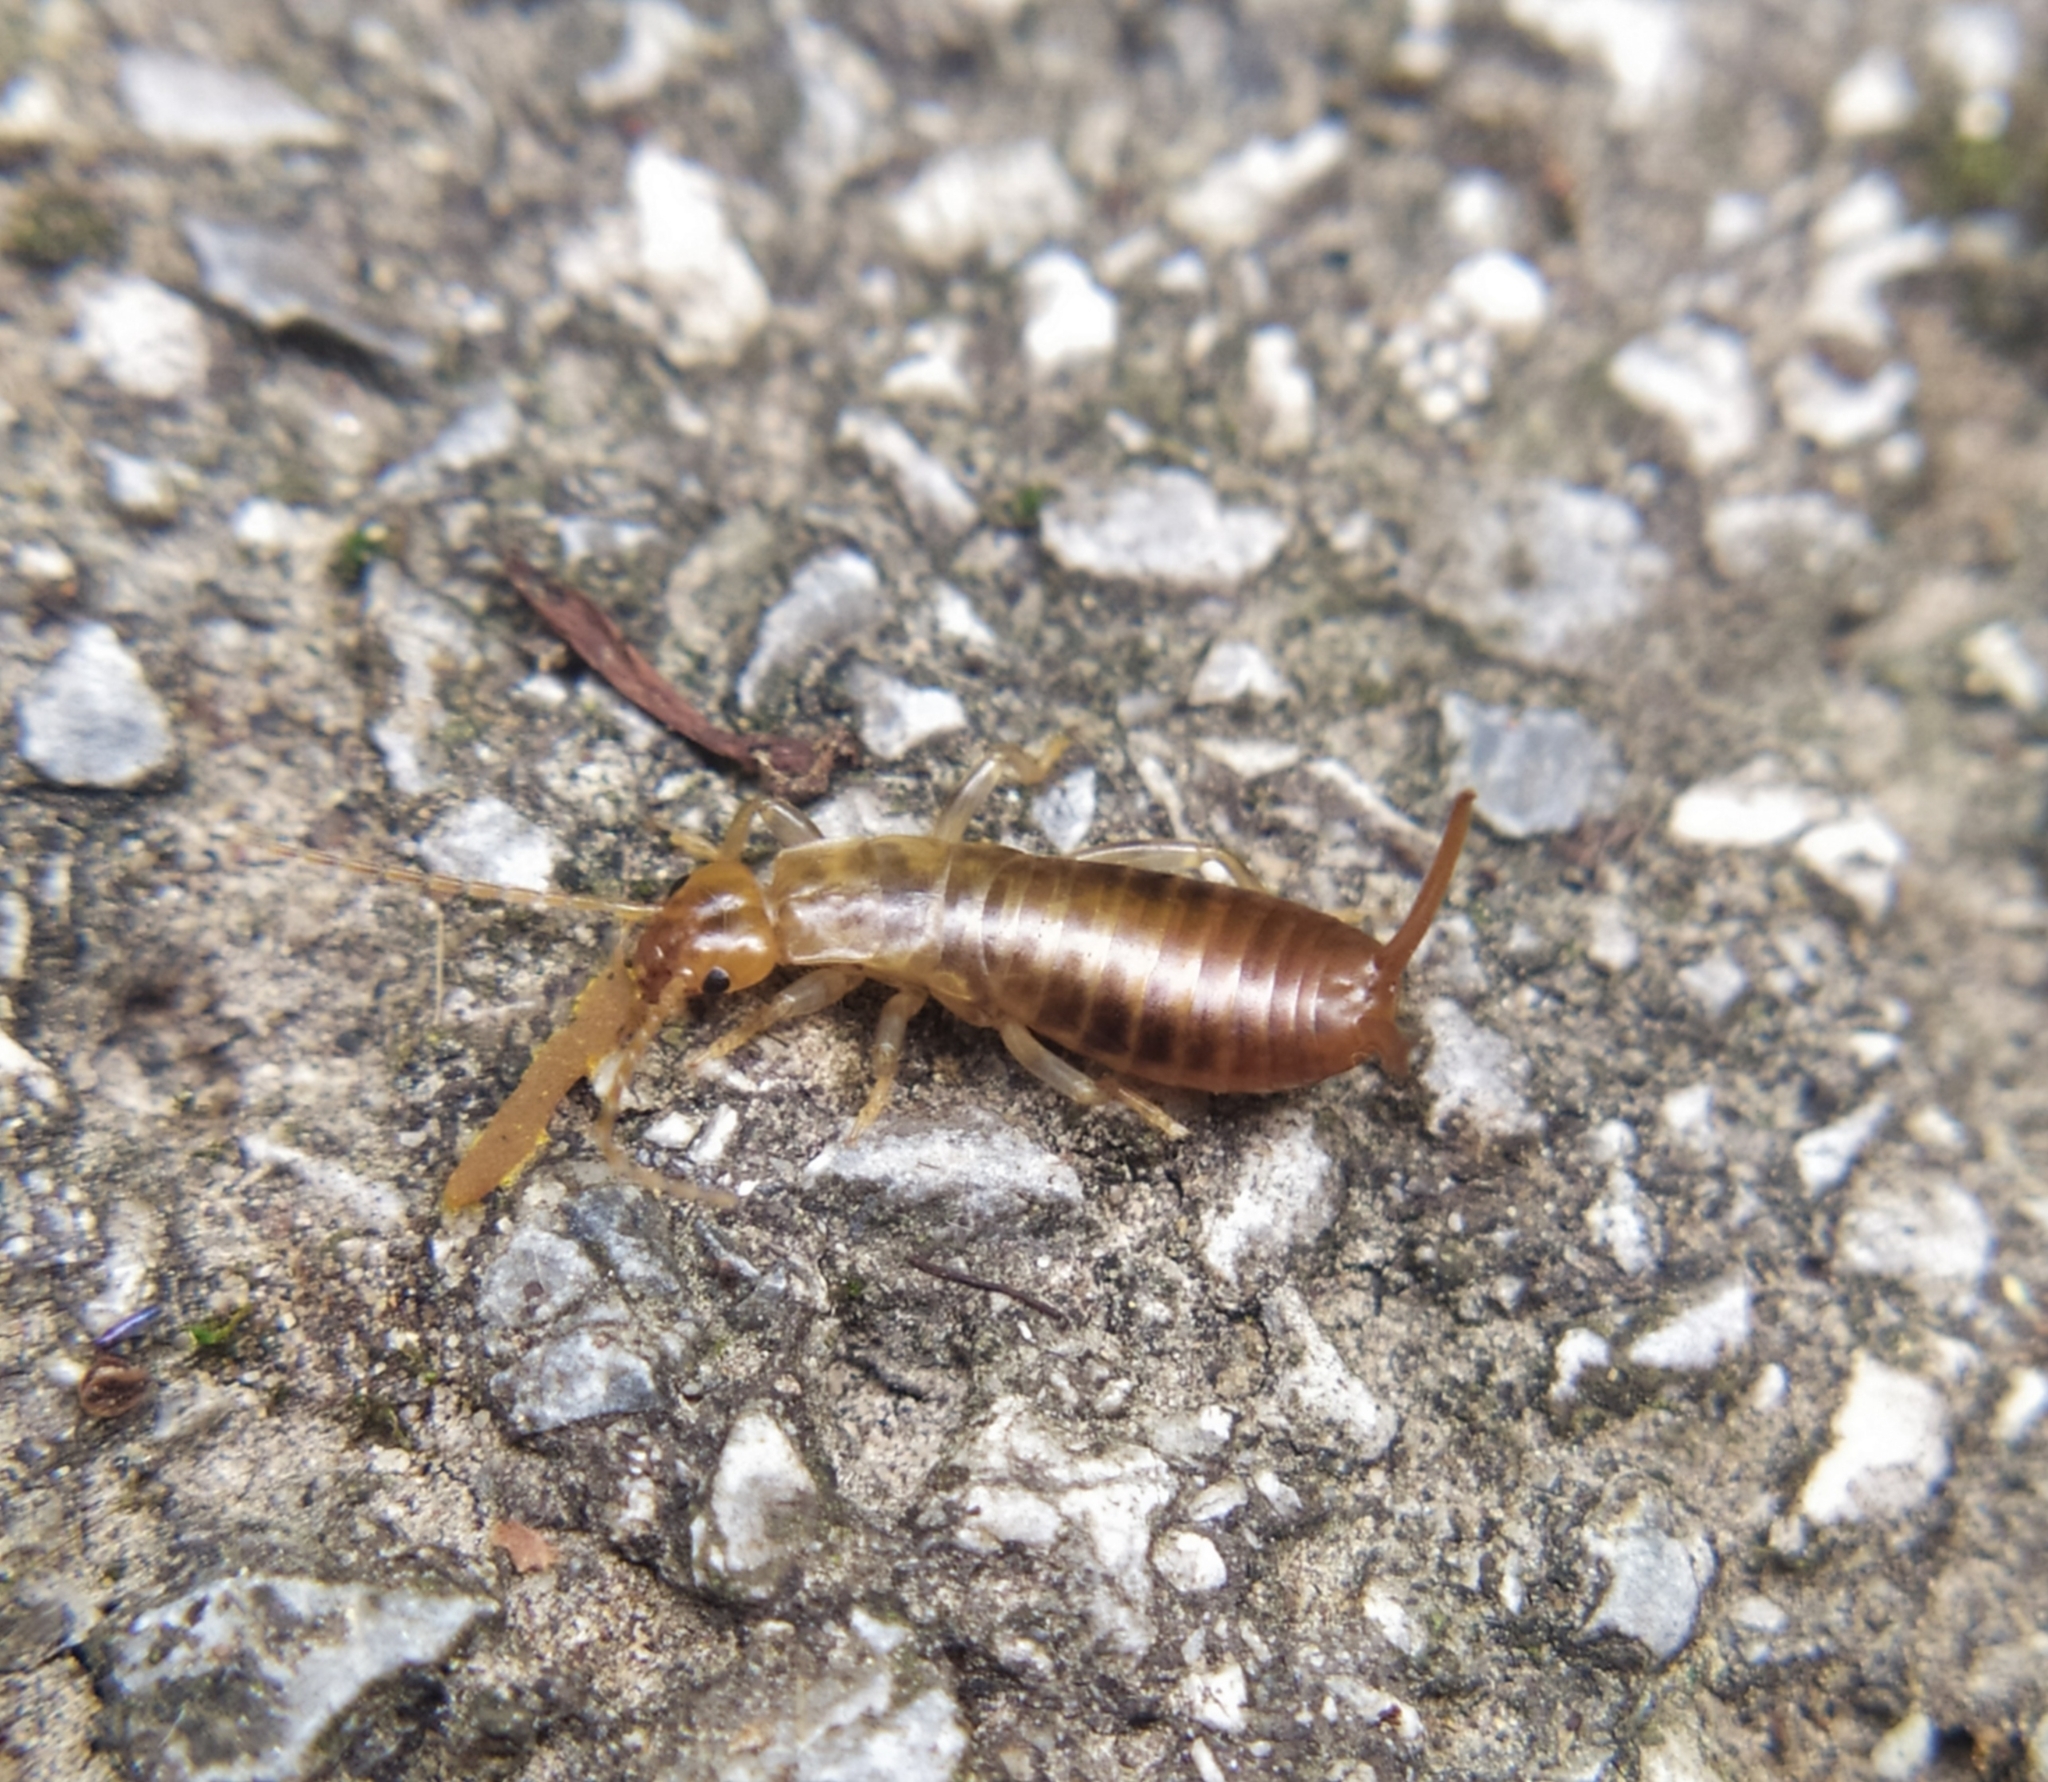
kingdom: Animalia
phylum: Arthropoda
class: Insecta
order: Dermaptera
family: Forficulidae
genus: Chelidurella
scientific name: Chelidurella acanthopygia
